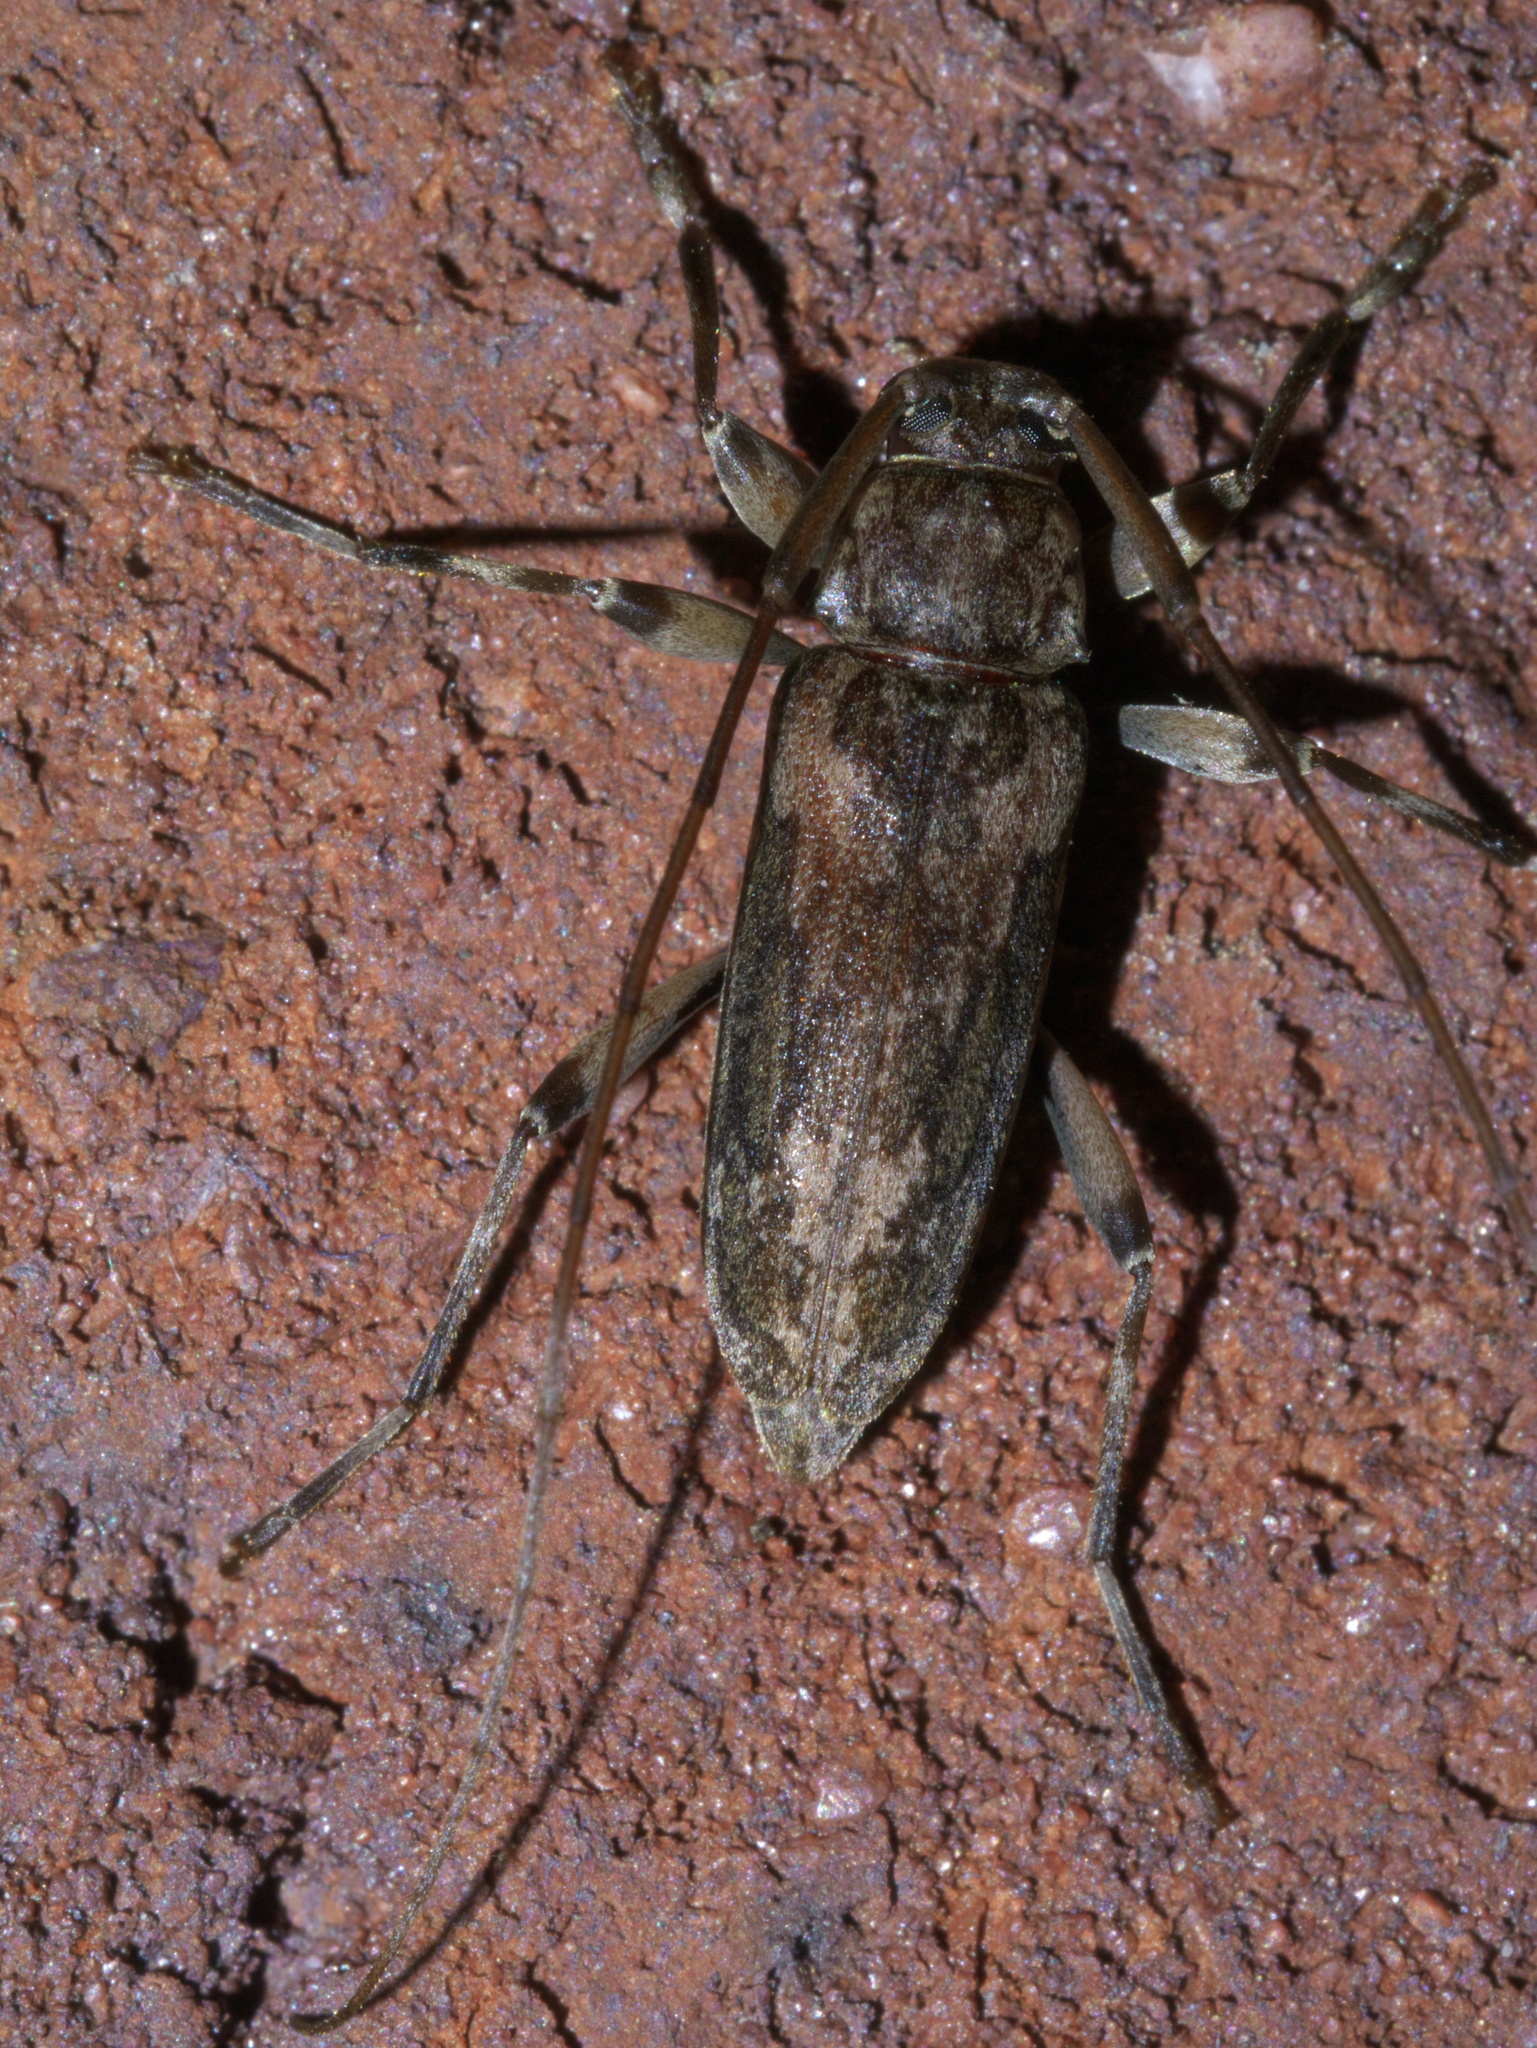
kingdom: Animalia
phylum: Arthropoda
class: Insecta
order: Coleoptera
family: Cerambycidae
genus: Lepturges
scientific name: Lepturges confluens
